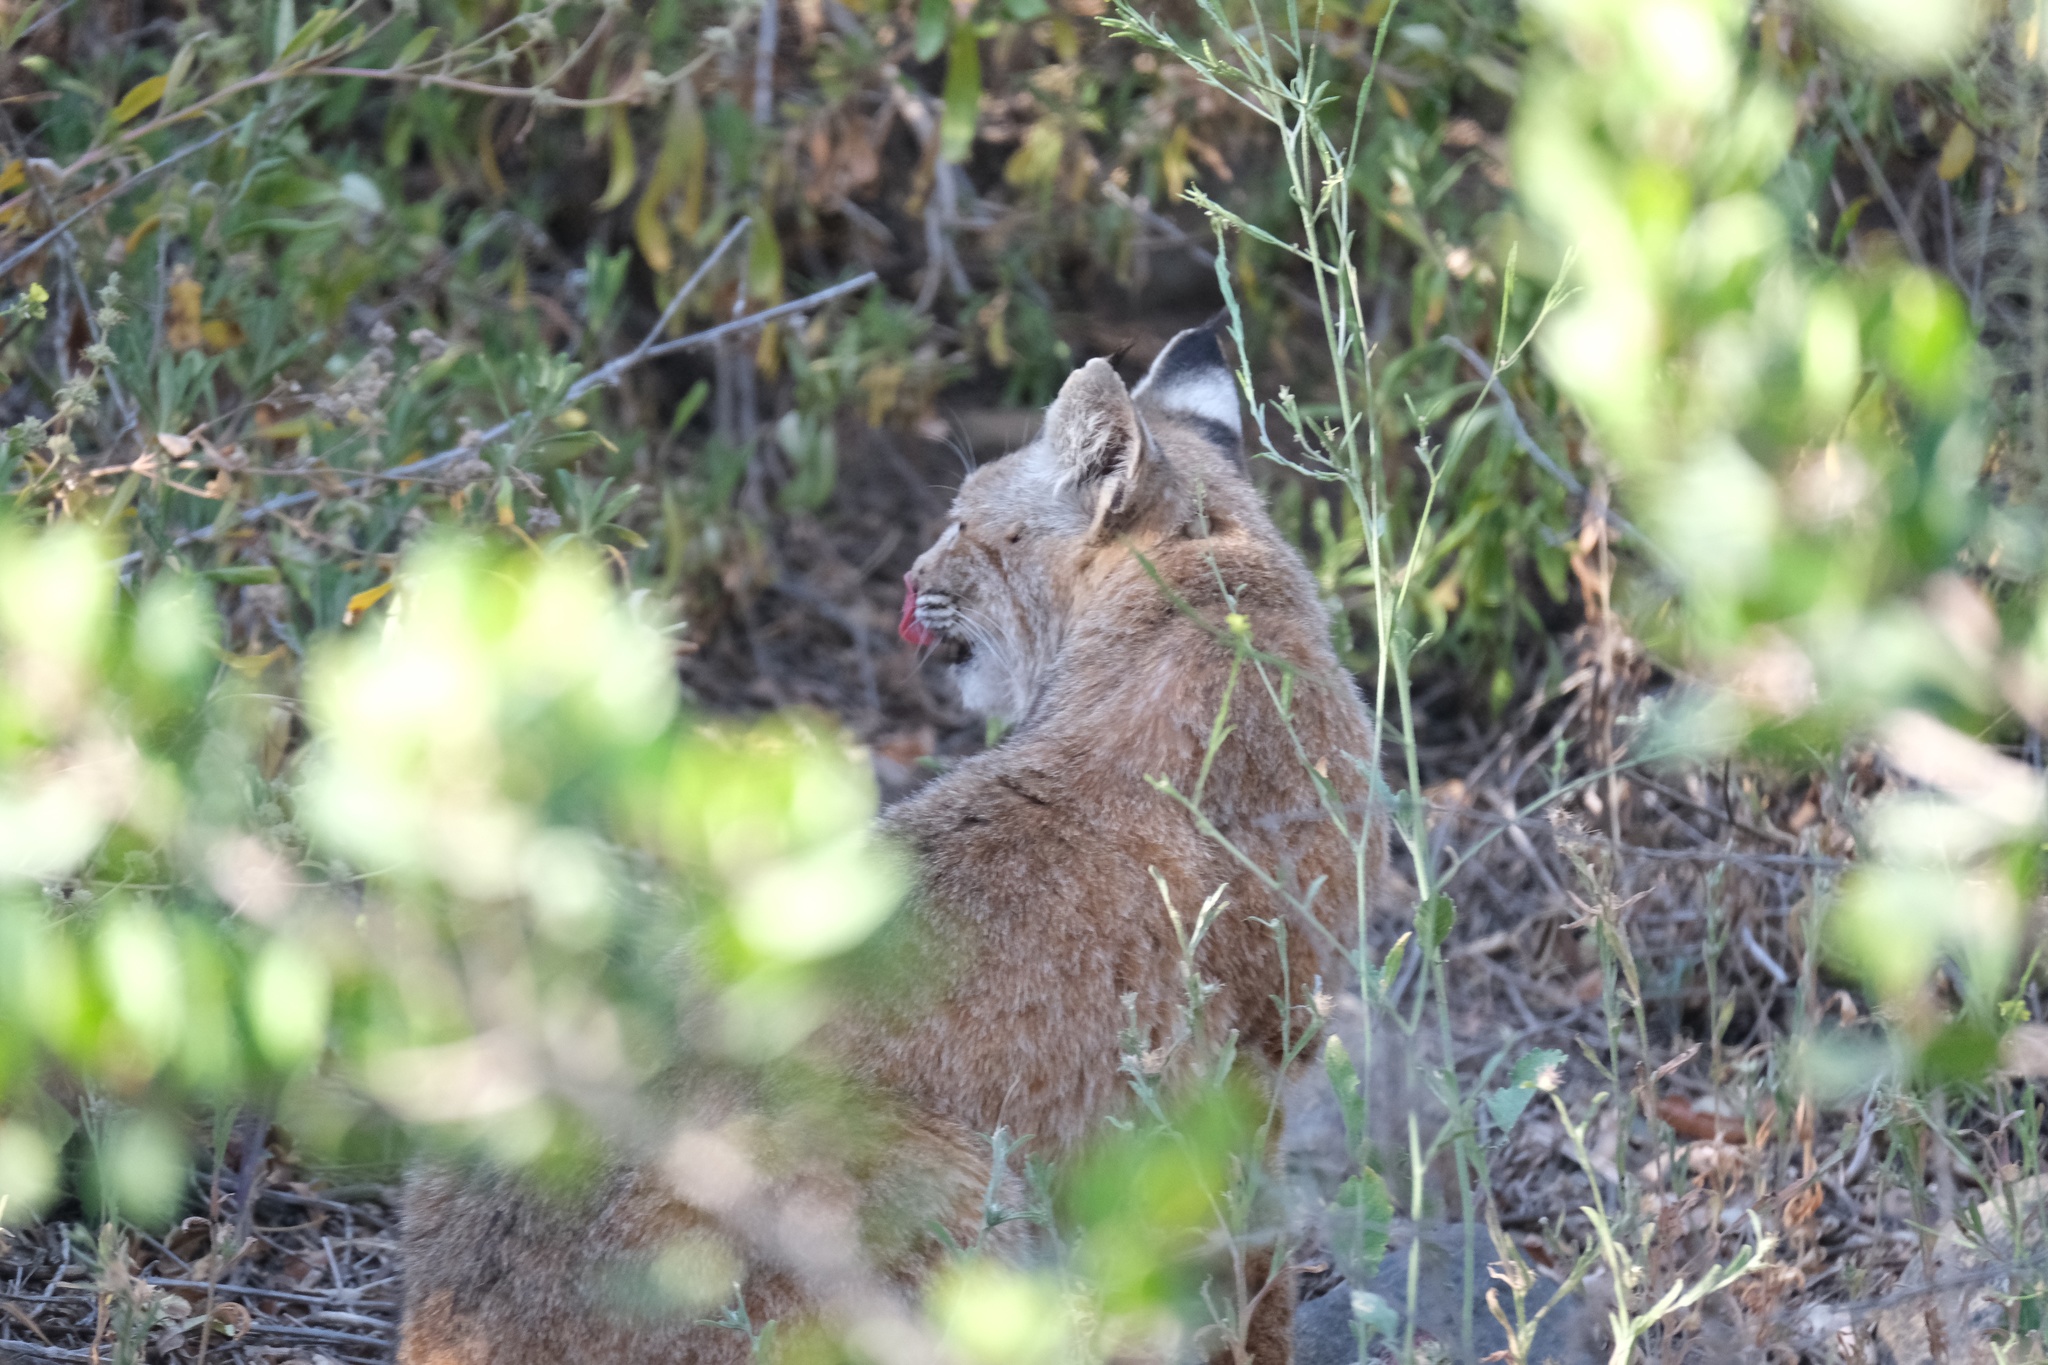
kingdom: Animalia
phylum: Chordata
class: Mammalia
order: Carnivora
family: Felidae
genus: Lynx
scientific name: Lynx rufus
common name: Bobcat
